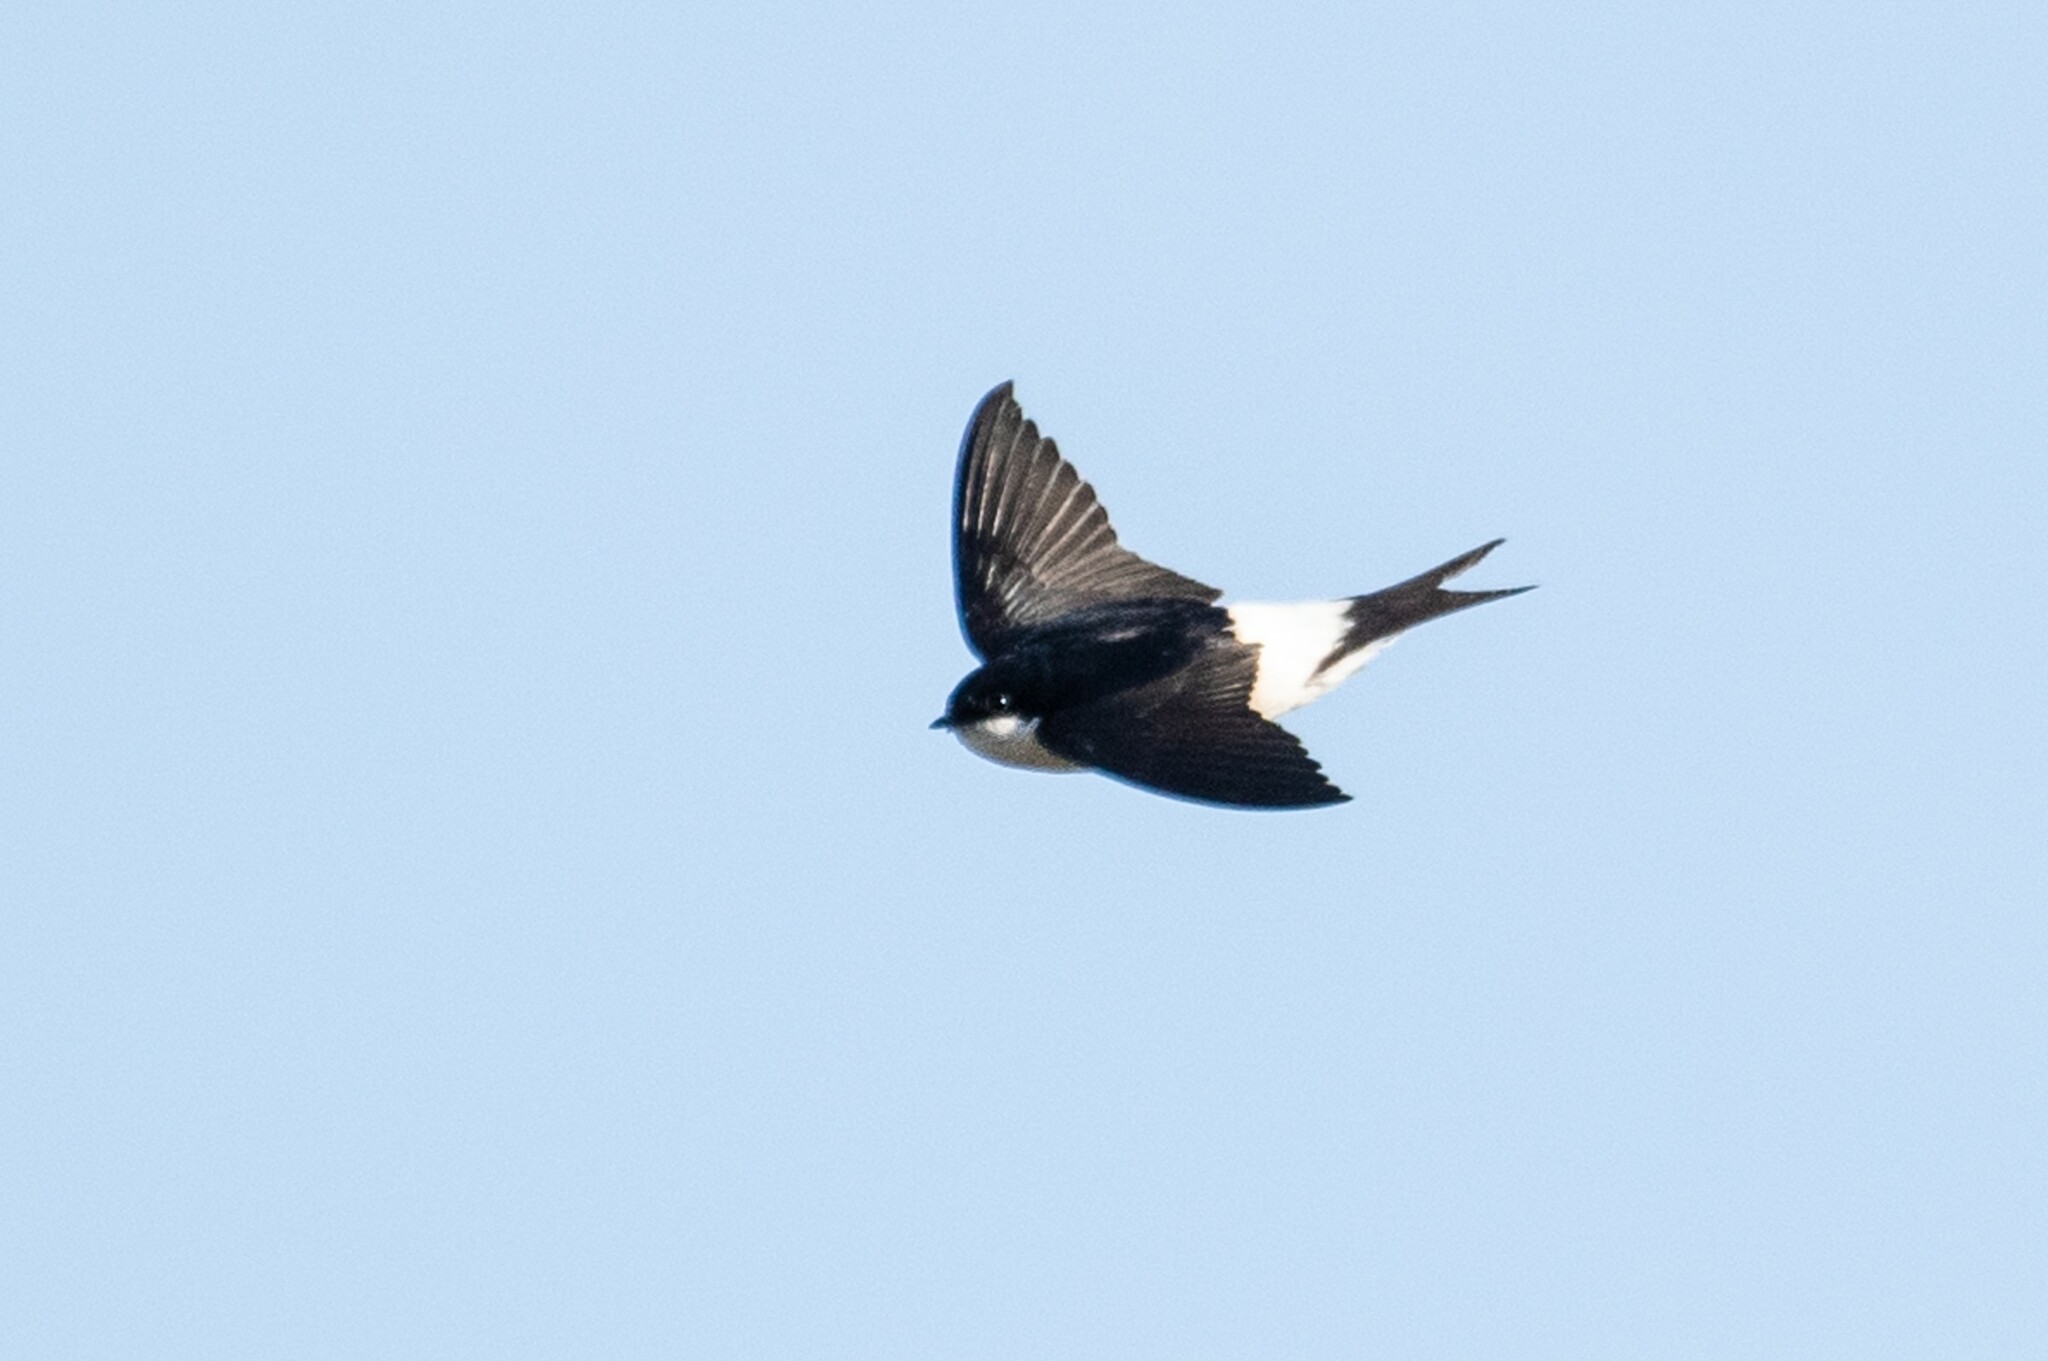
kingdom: Animalia
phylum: Chordata
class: Aves
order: Passeriformes
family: Hirundinidae
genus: Delichon
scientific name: Delichon urbicum
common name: Common house martin
